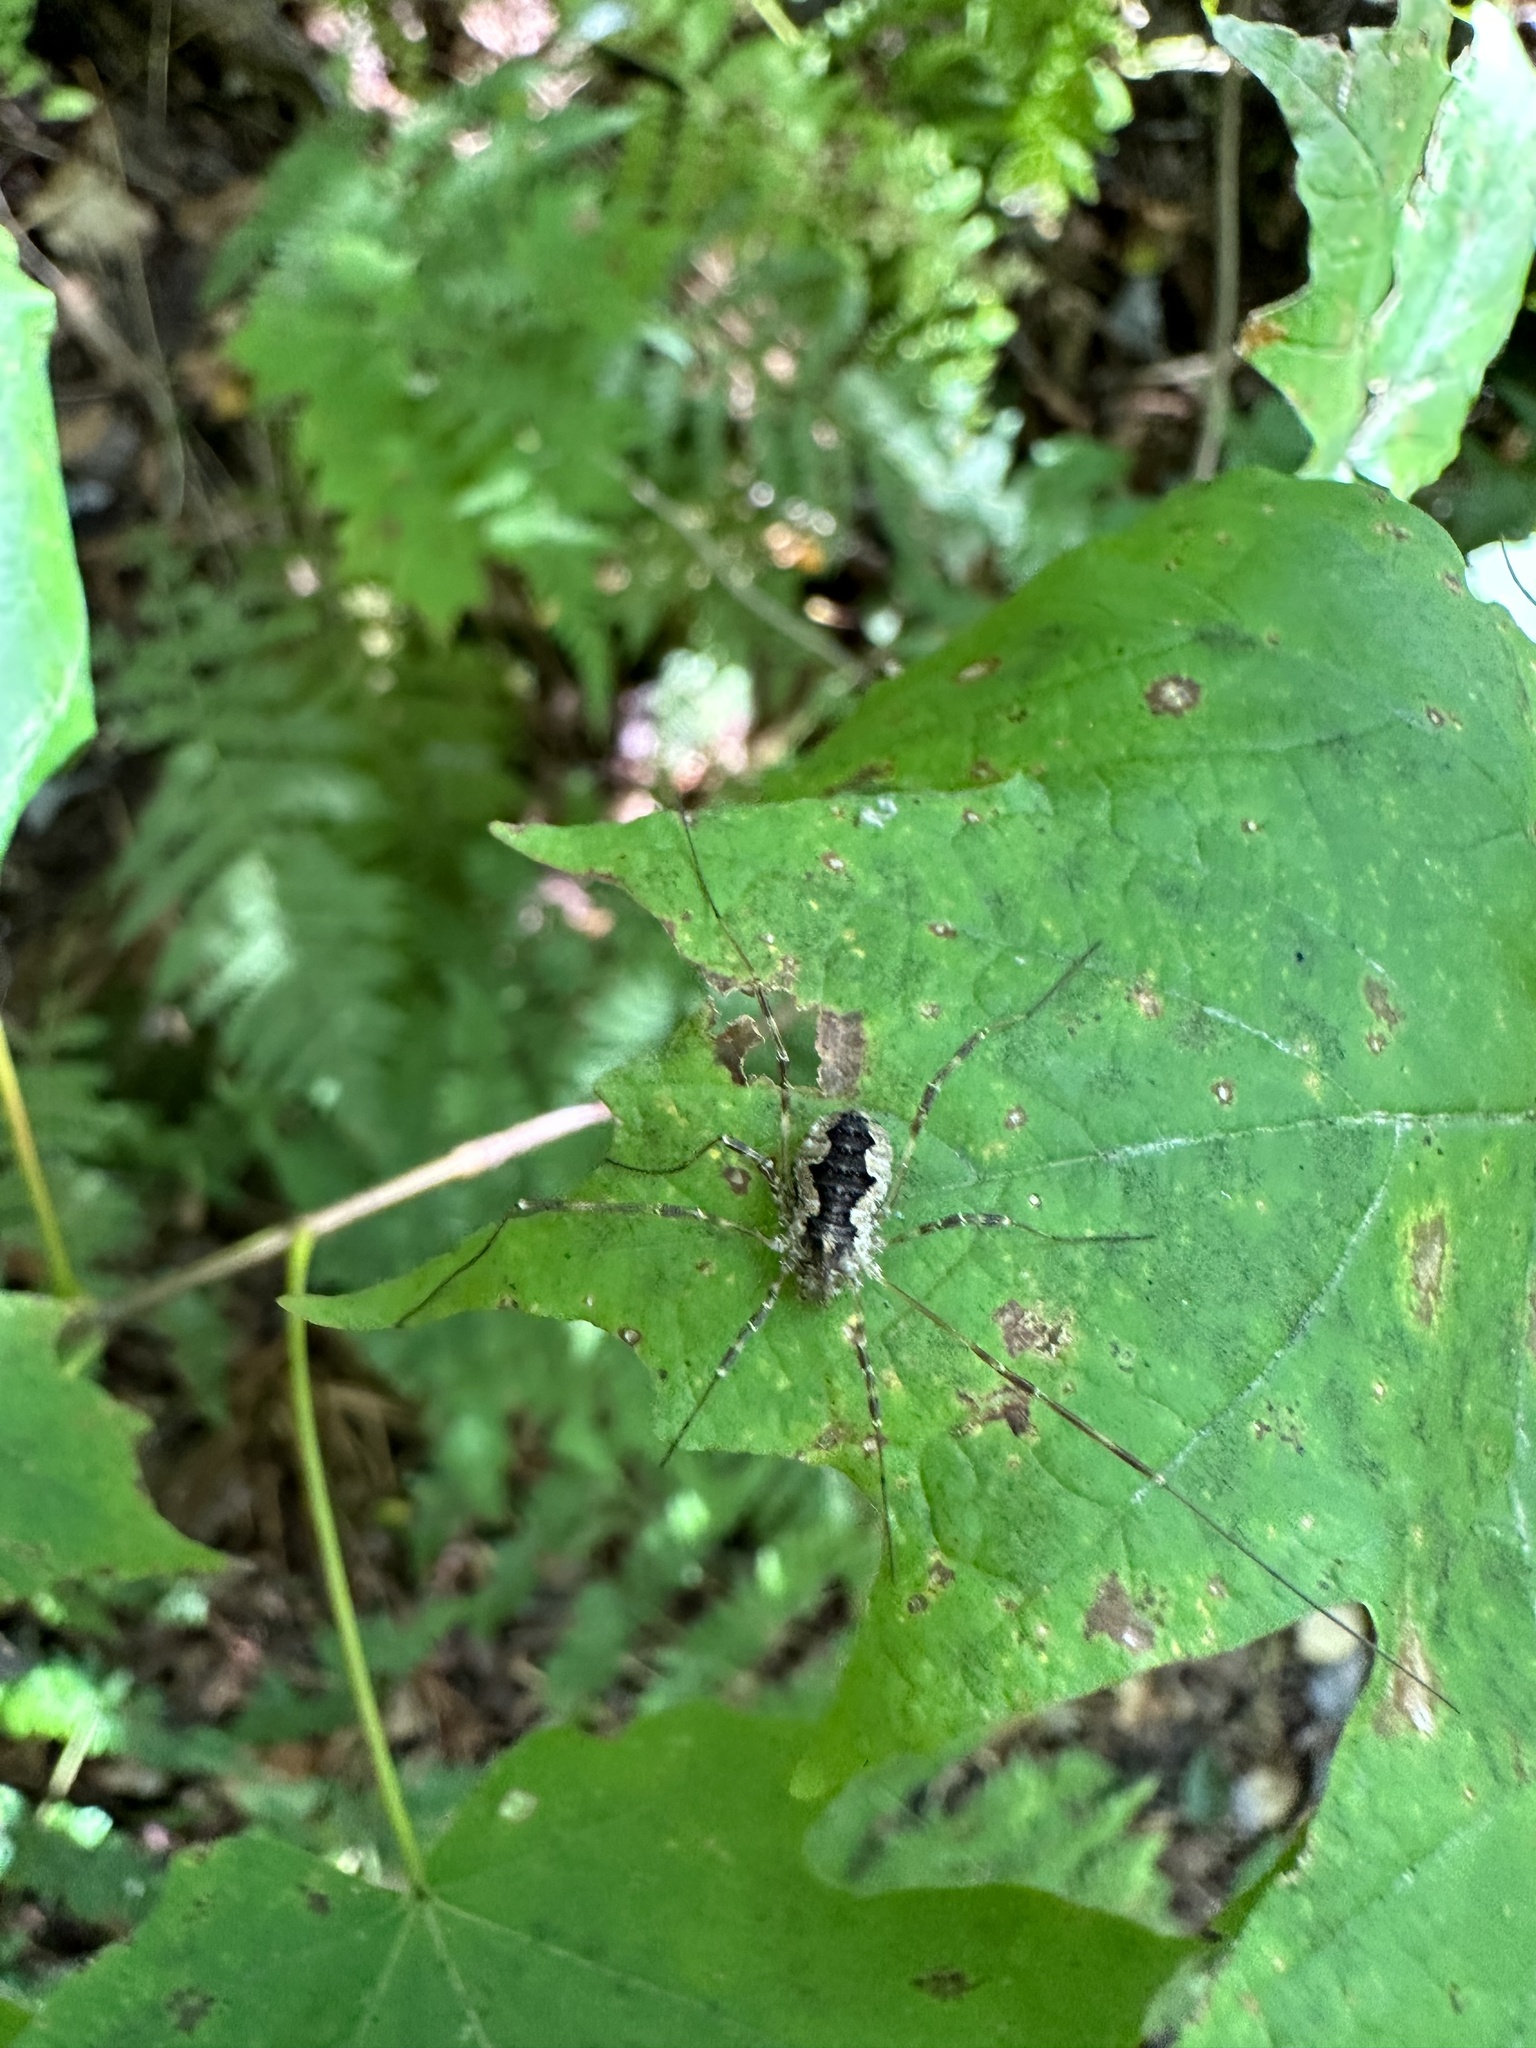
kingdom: Animalia
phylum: Arthropoda
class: Arachnida
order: Opiliones
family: Phalangiidae
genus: Odiellus
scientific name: Odiellus pictus
